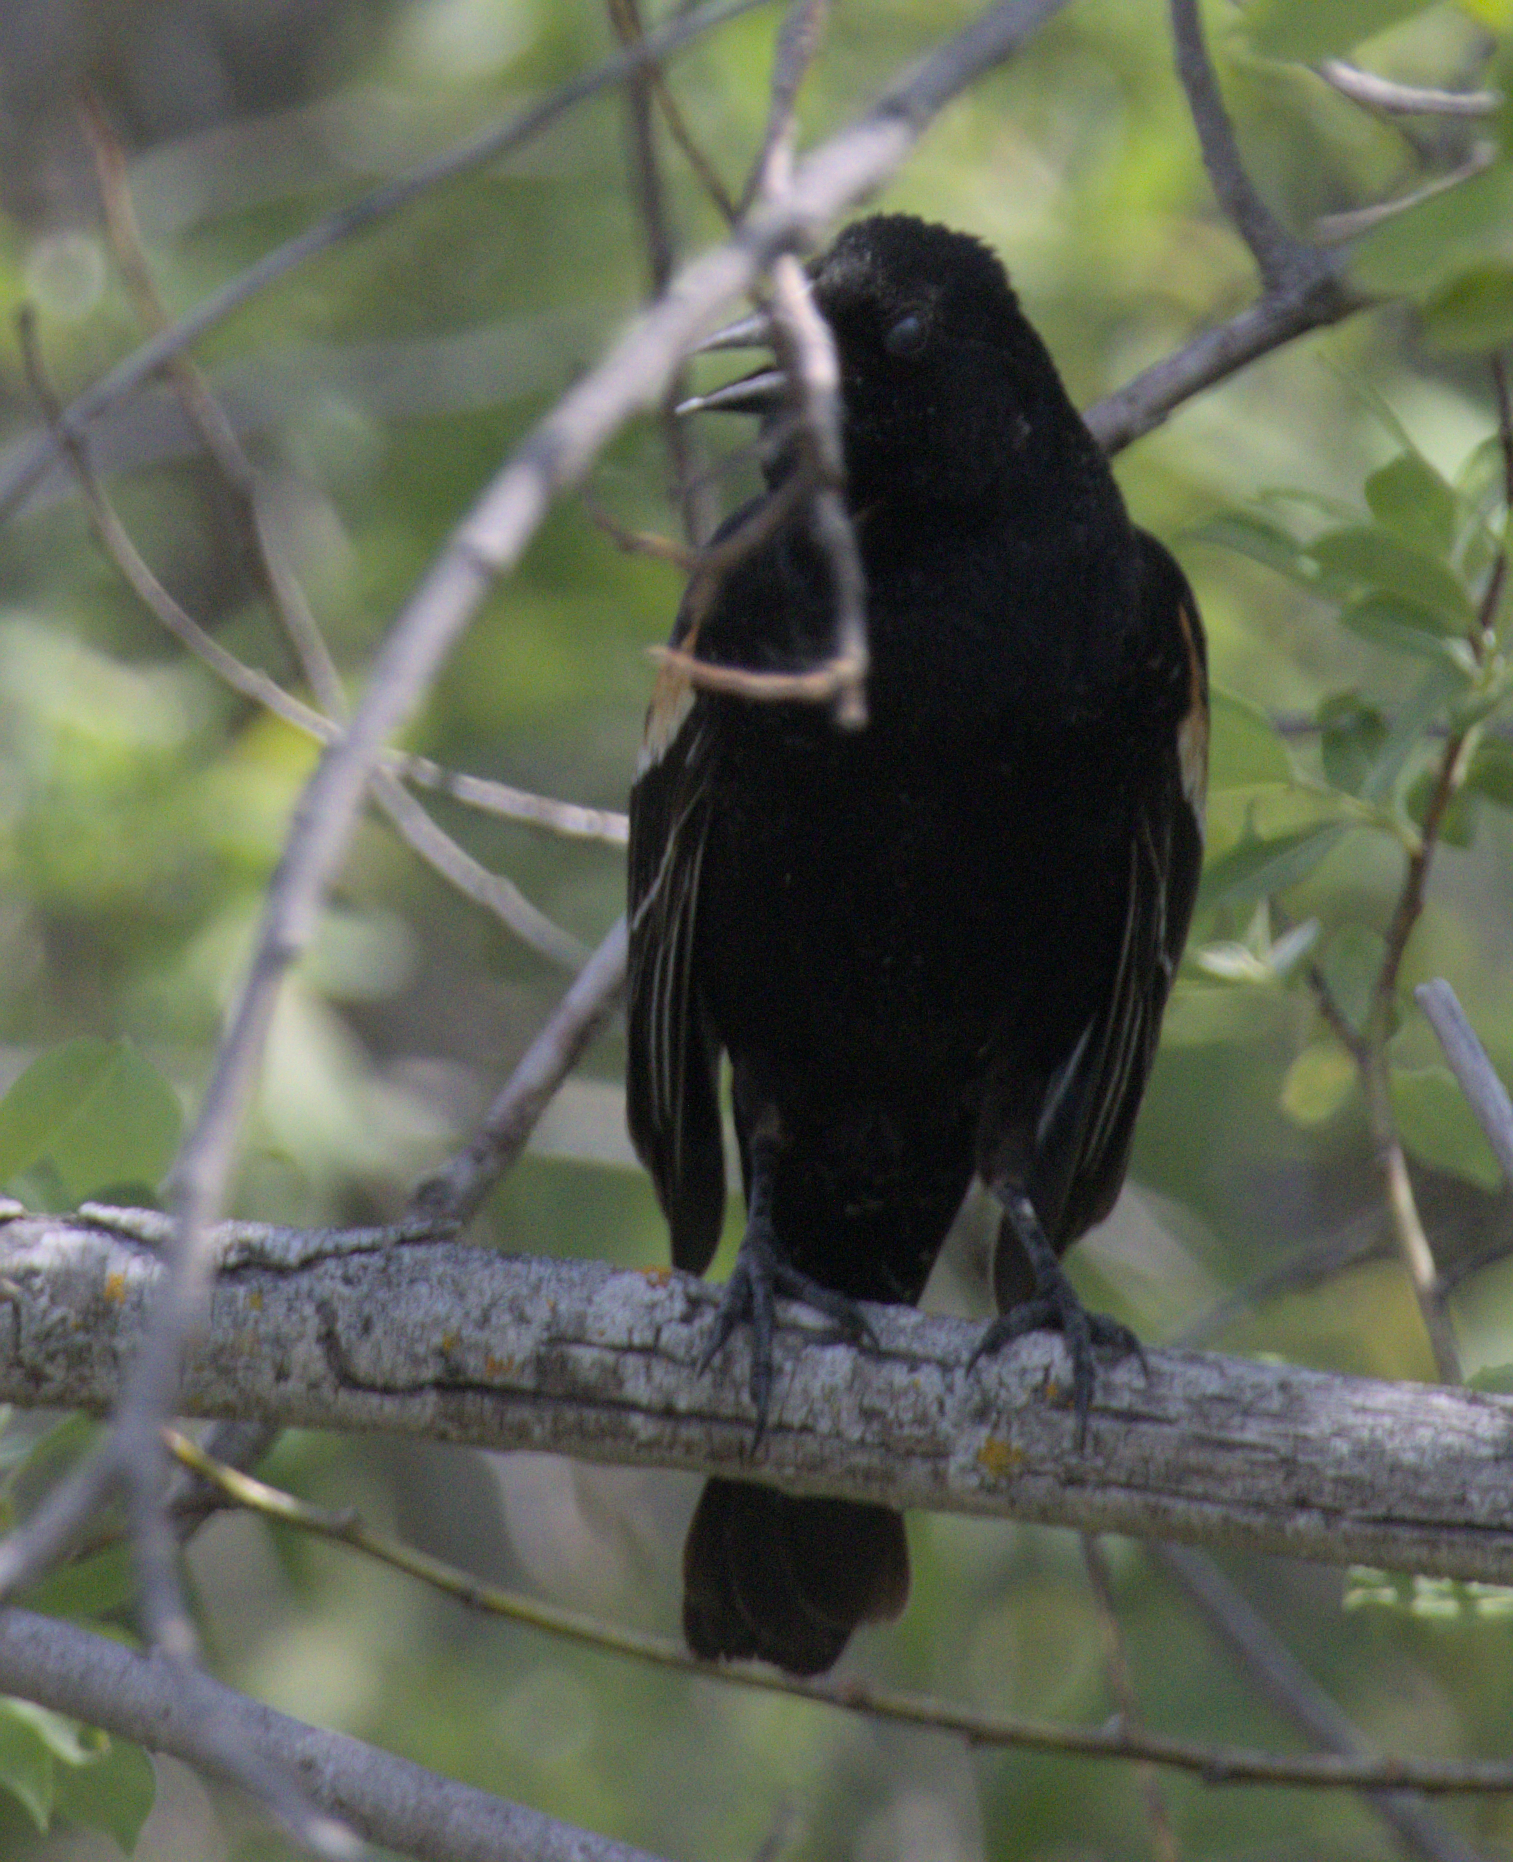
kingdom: Animalia
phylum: Chordata
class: Aves
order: Passeriformes
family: Icteridae
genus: Agelaius
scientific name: Agelaius phoeniceus
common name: Red-winged blackbird
